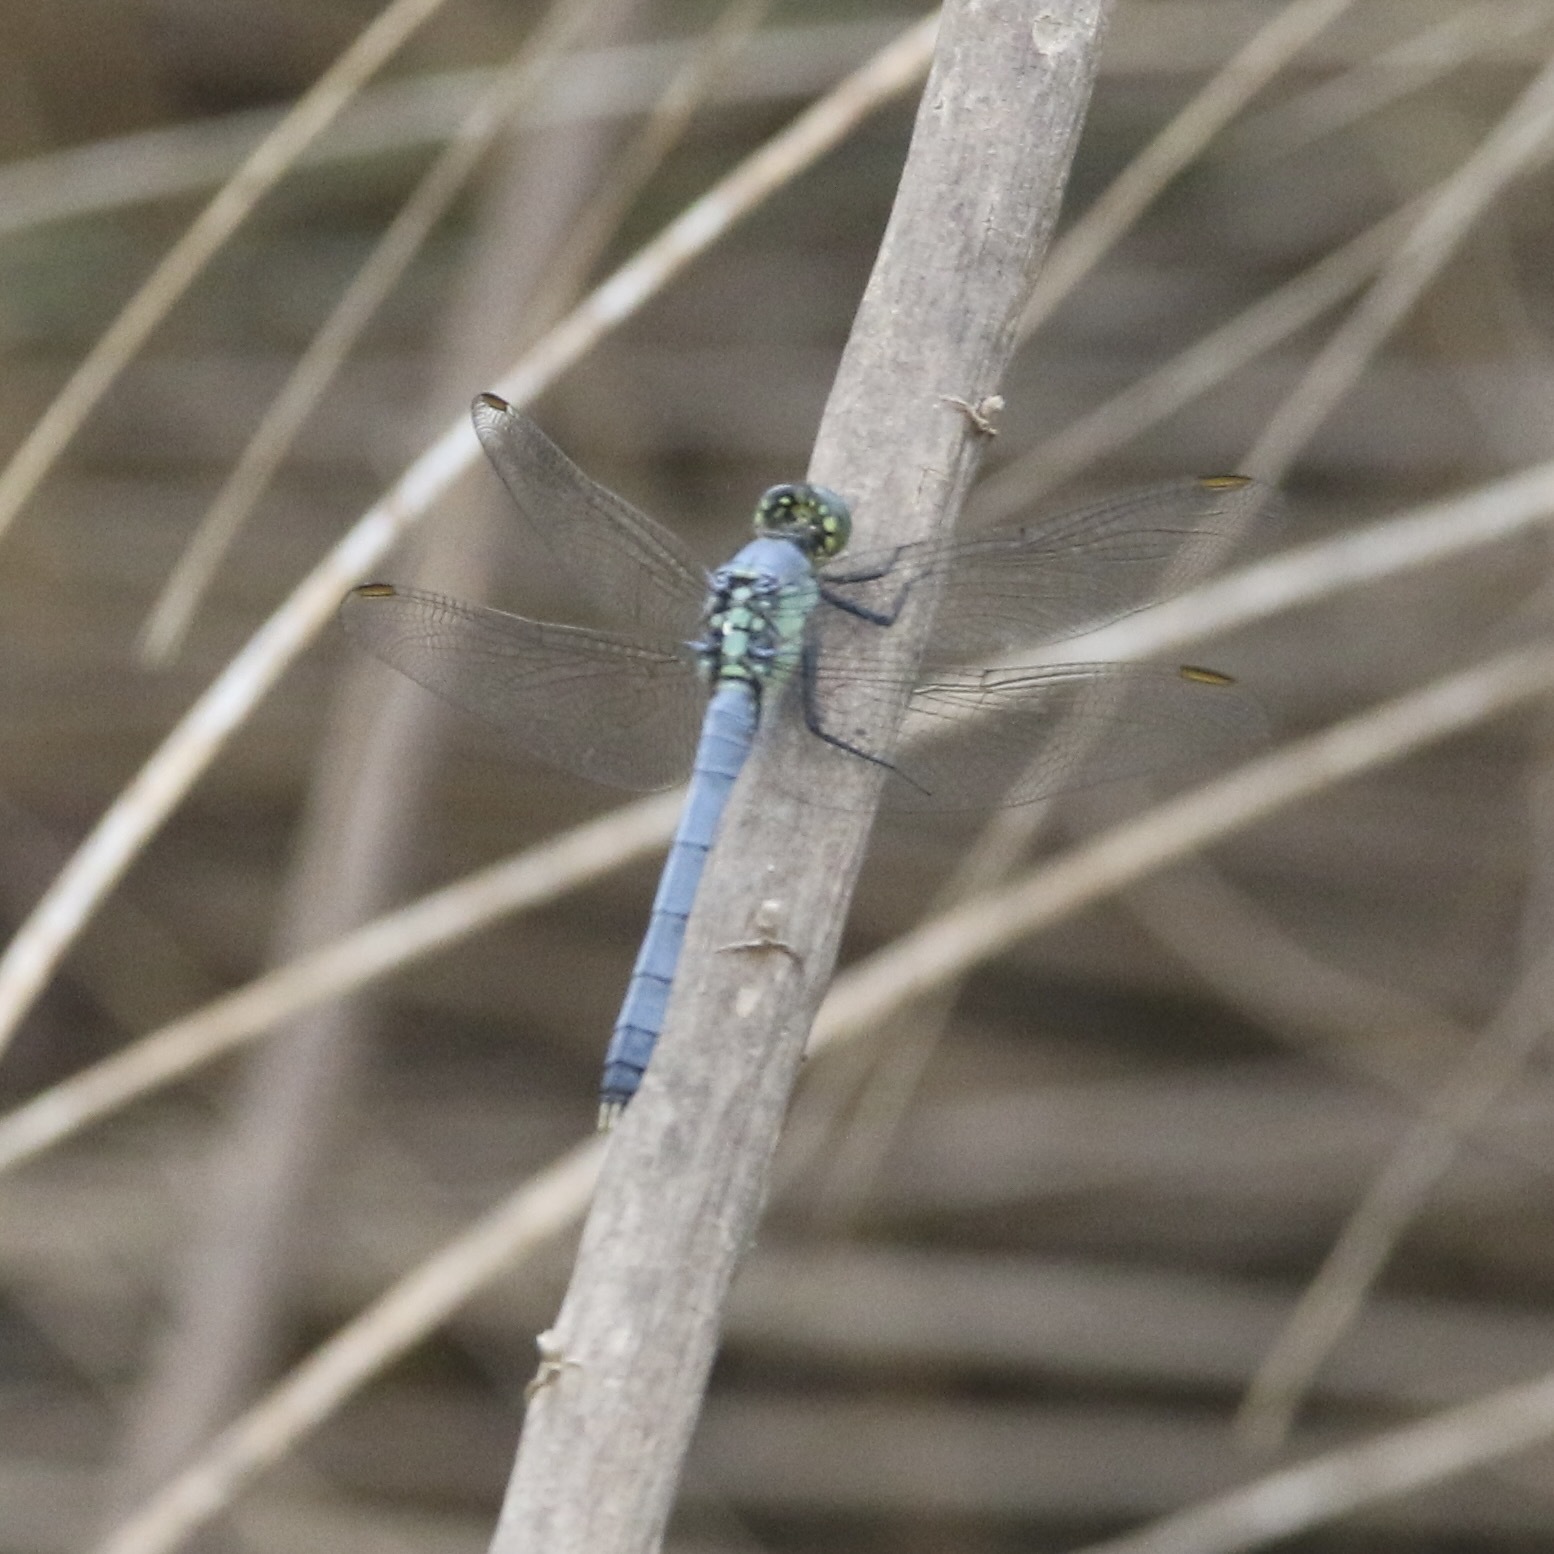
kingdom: Animalia
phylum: Arthropoda
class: Insecta
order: Odonata
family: Libellulidae
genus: Erythemis
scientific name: Erythemis simplicicollis
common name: Eastern pondhawk
